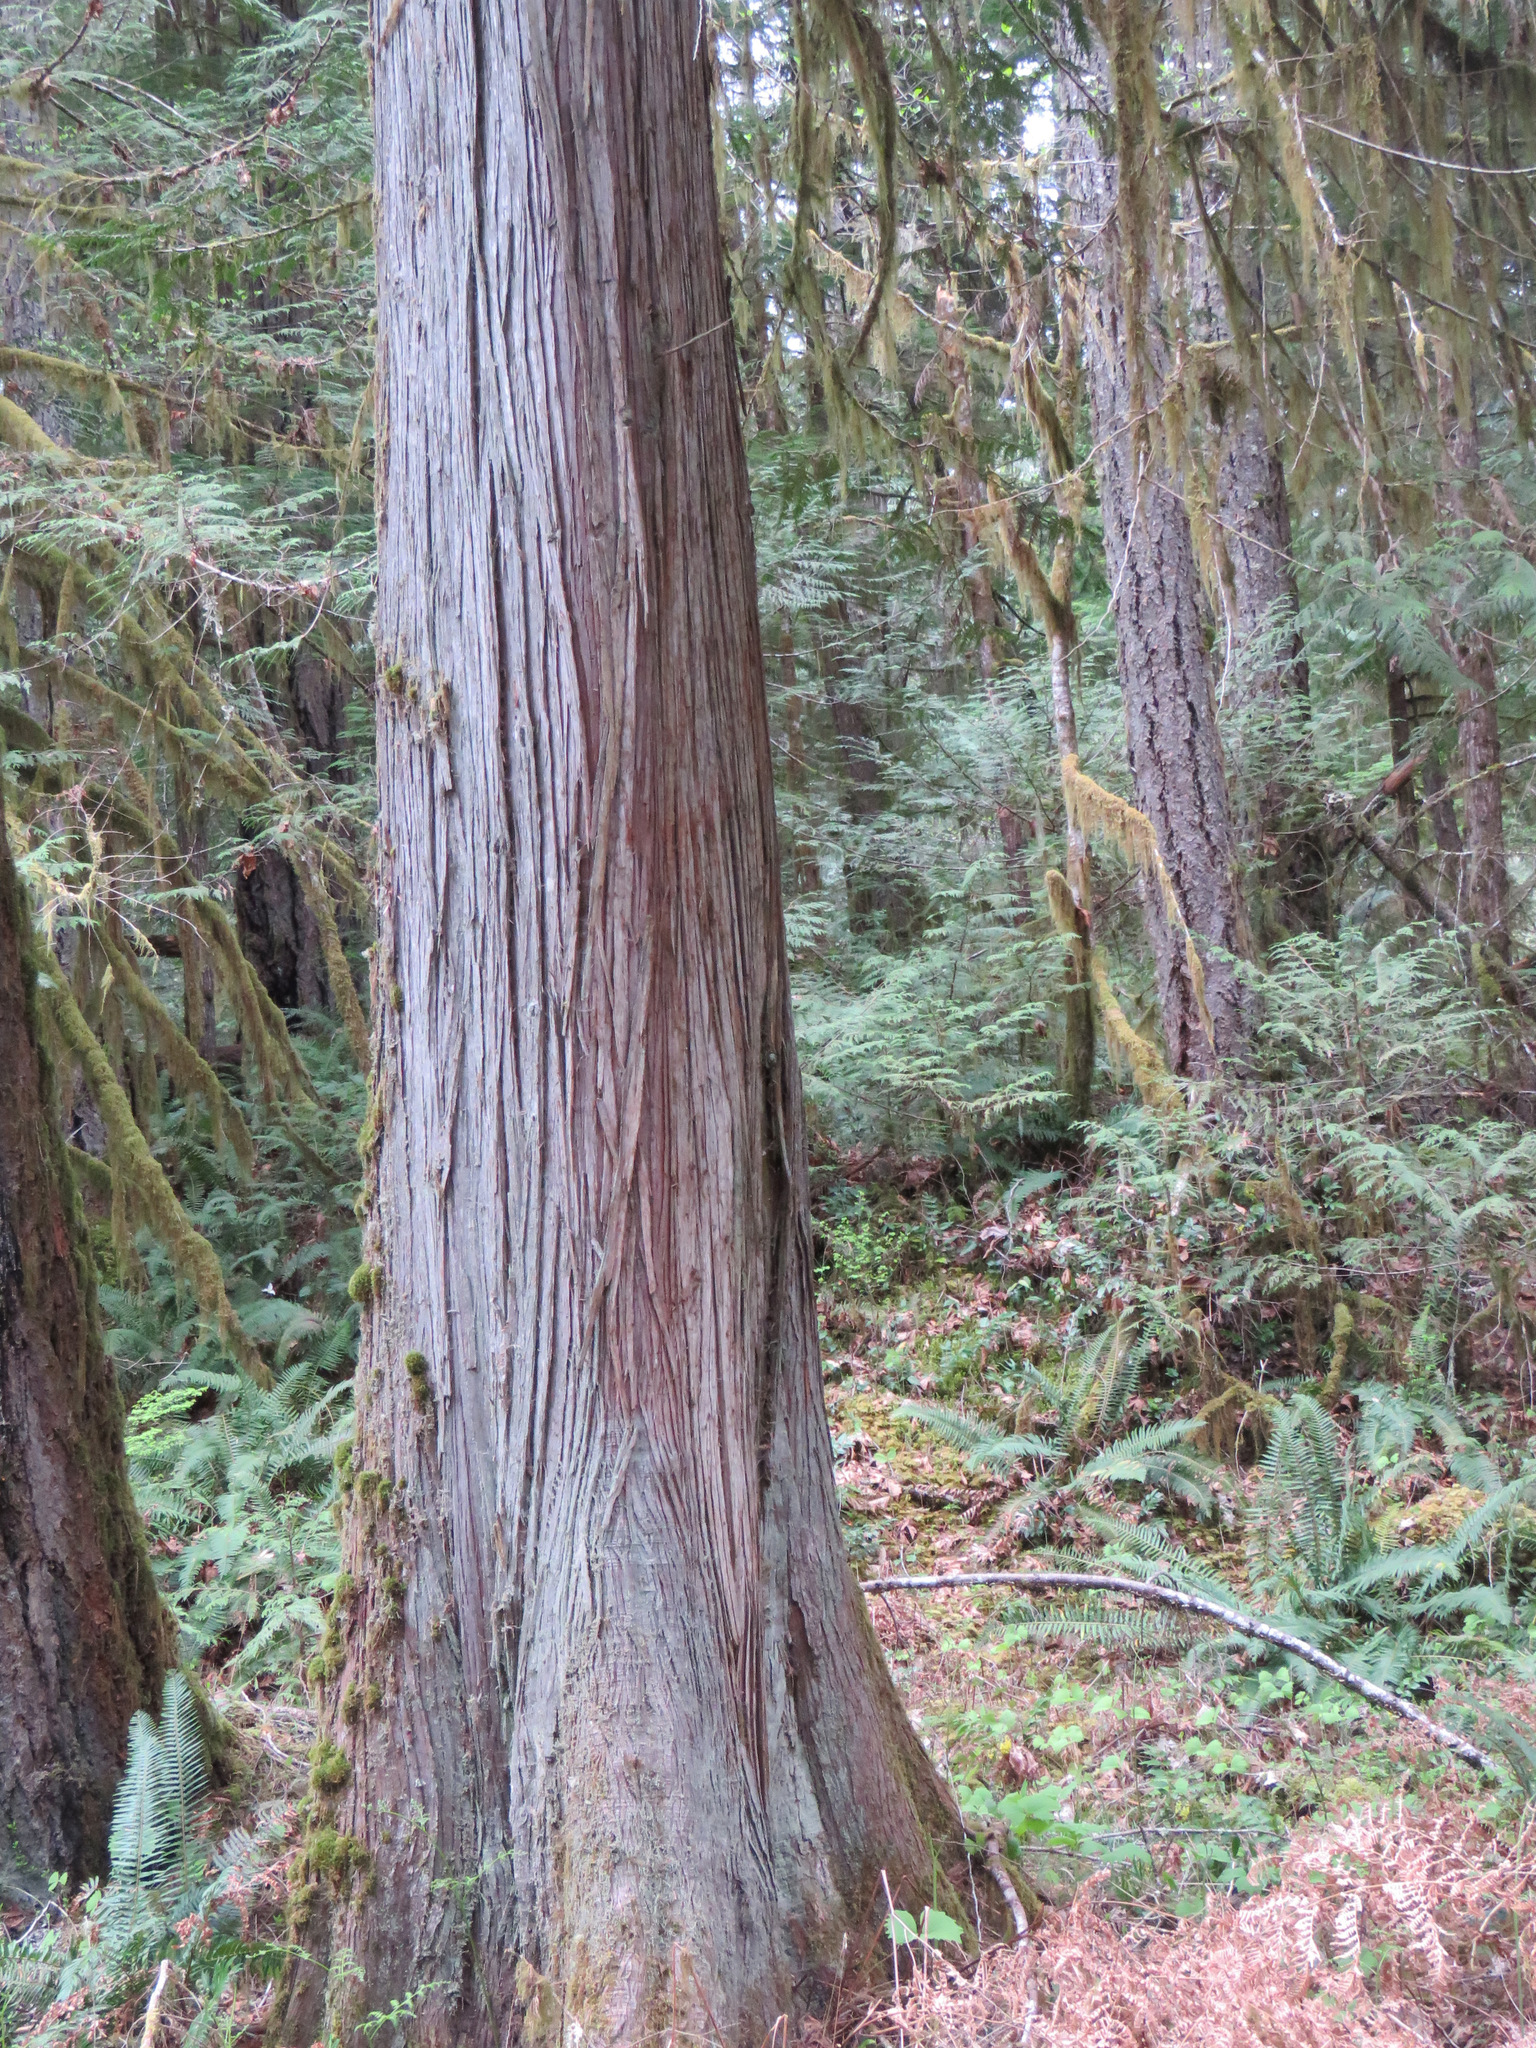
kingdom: Plantae
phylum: Tracheophyta
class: Pinopsida
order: Pinales
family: Cupressaceae
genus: Thuja
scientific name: Thuja plicata
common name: Western red-cedar
